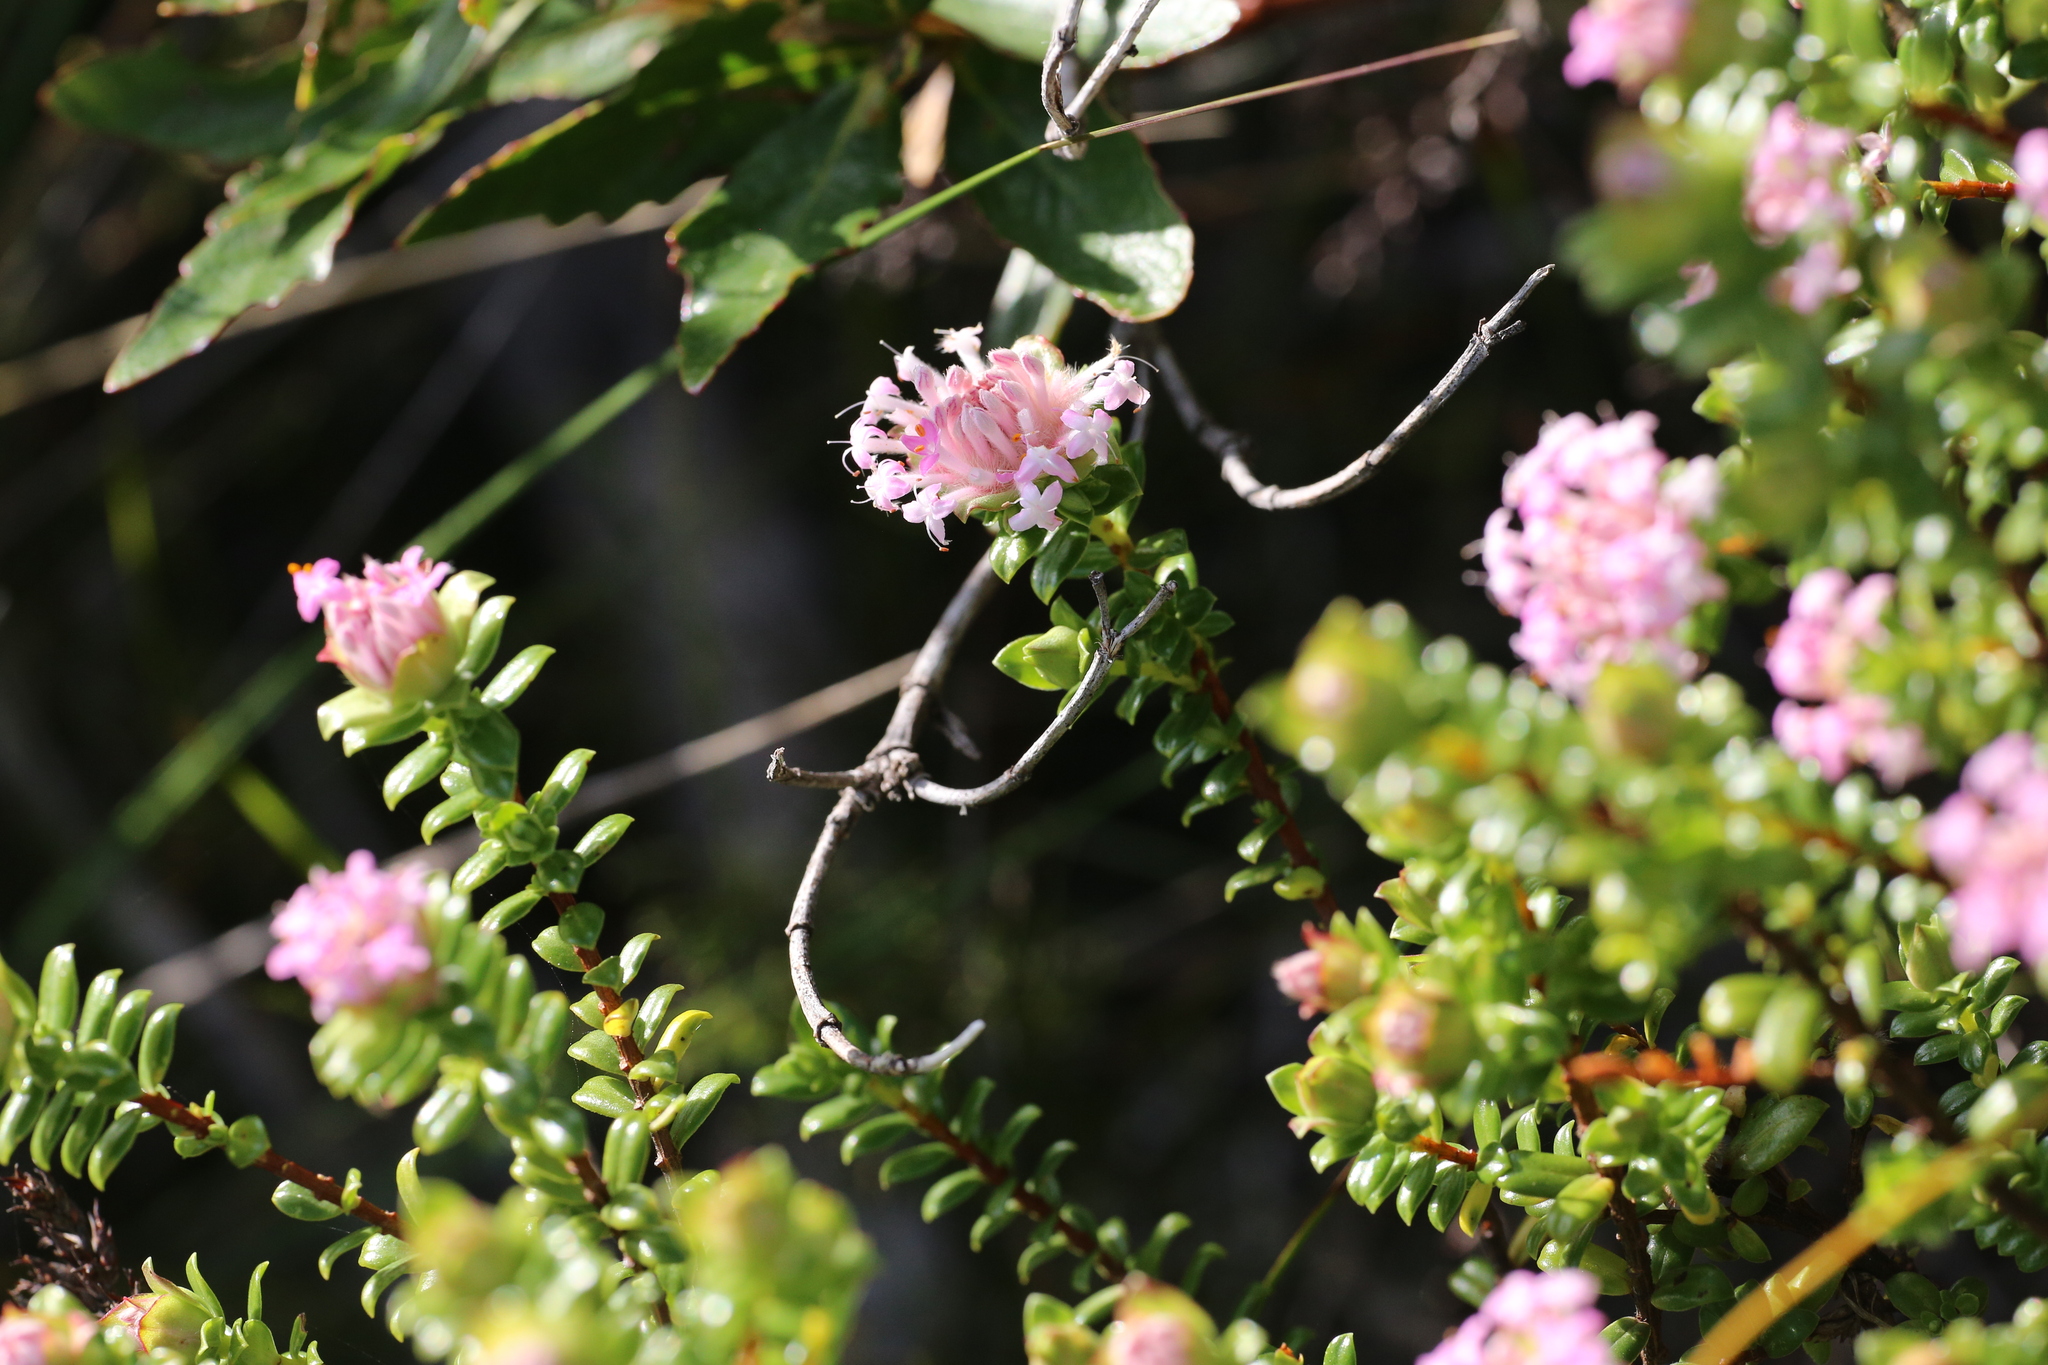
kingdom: Plantae
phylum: Tracheophyta
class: Magnoliopsida
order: Malvales
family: Thymelaeaceae
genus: Pimelea
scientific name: Pimelea ferruginea
